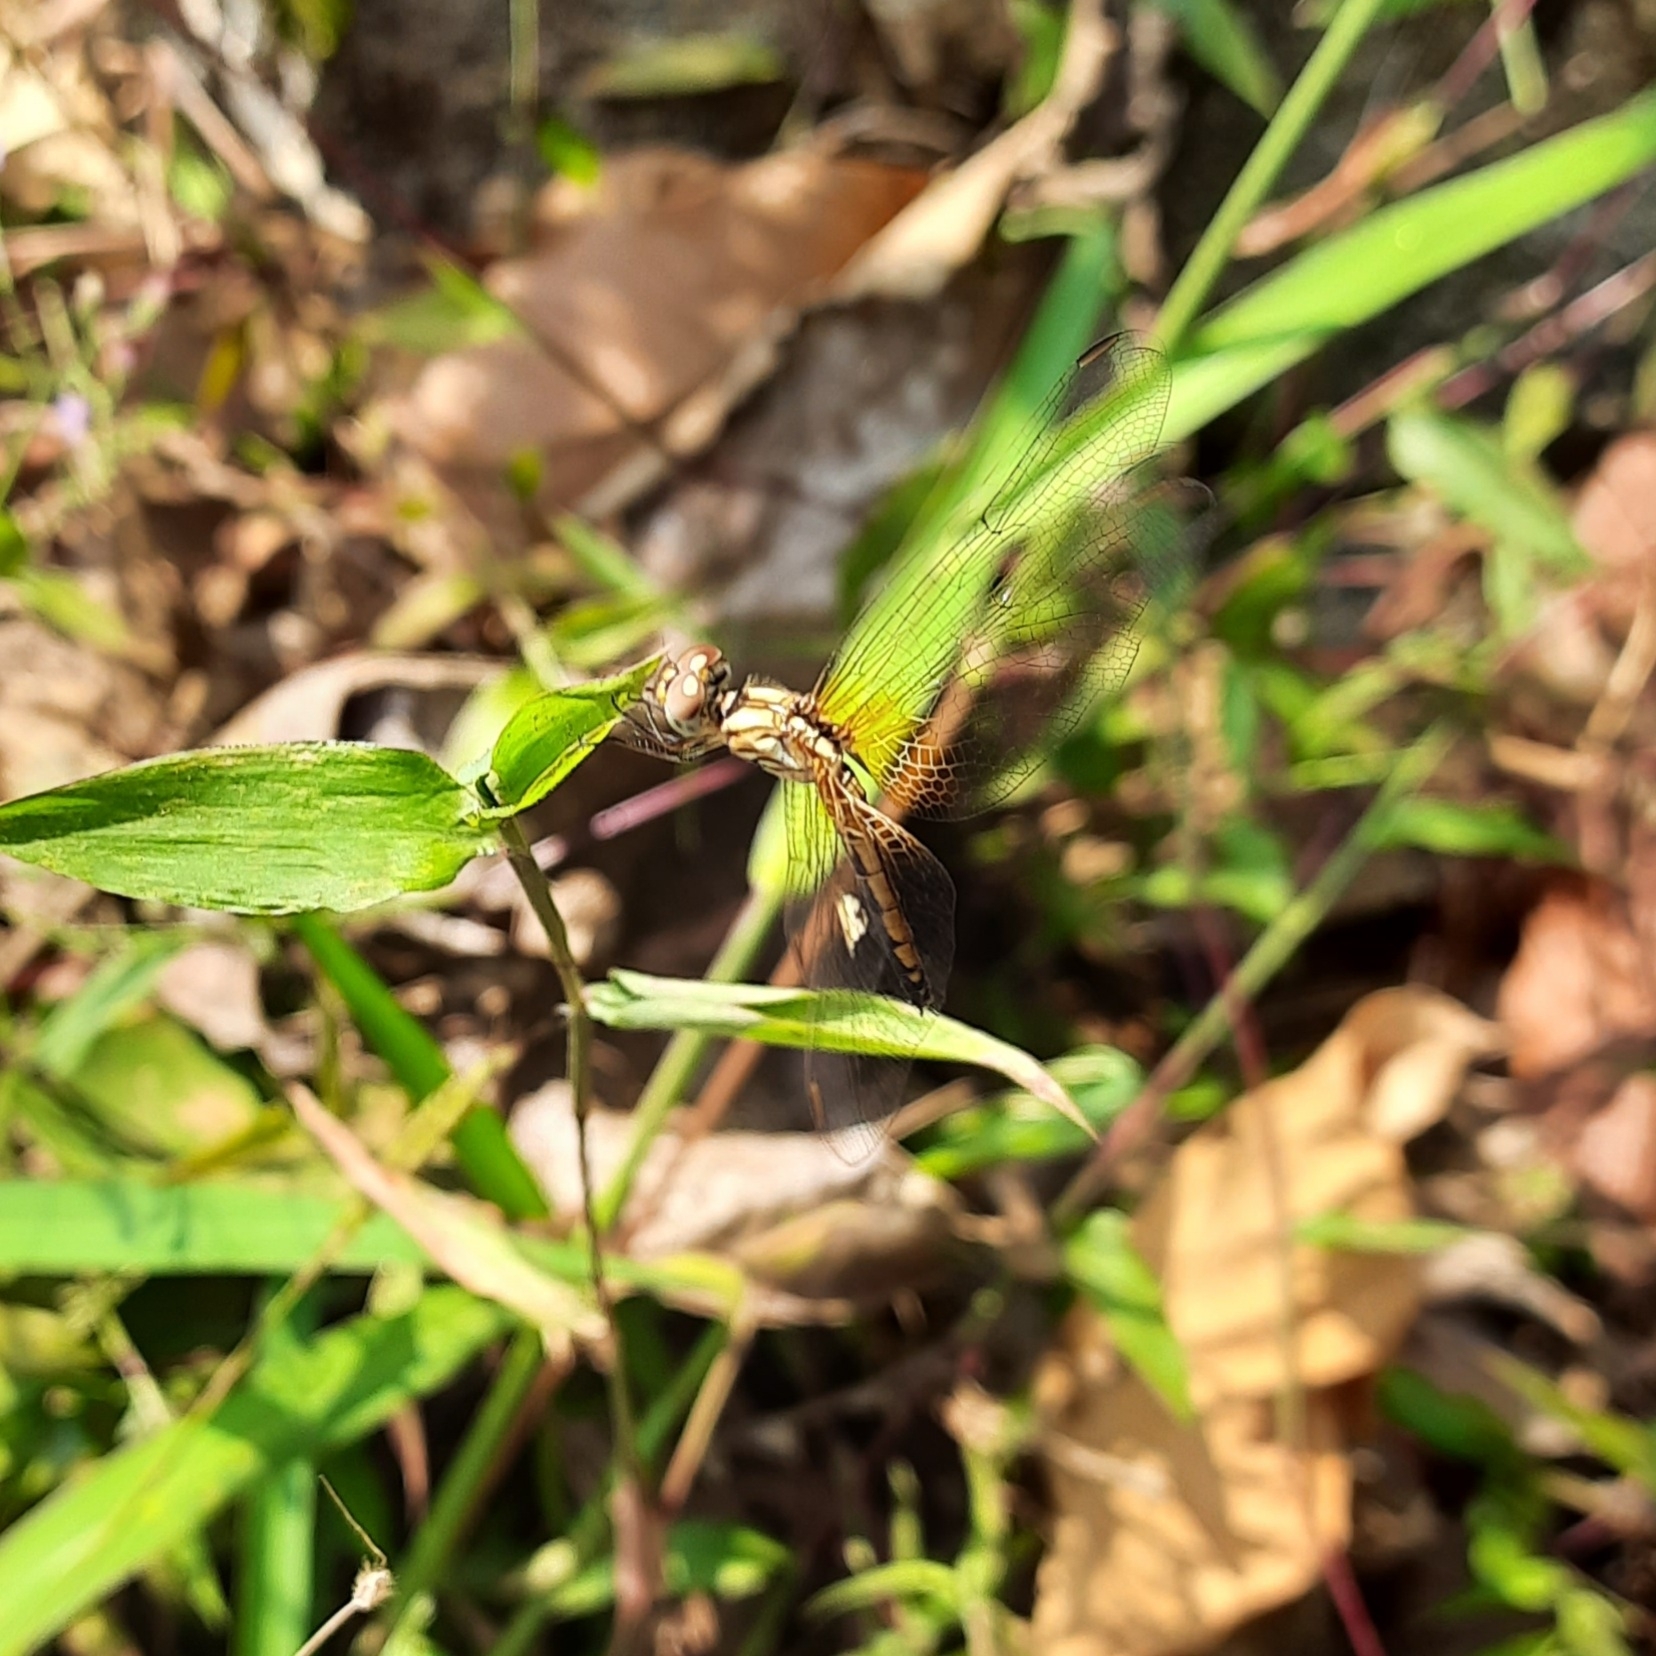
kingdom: Animalia
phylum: Arthropoda
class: Insecta
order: Odonata
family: Libellulidae
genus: Trithemis
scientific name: Trithemis aurora
